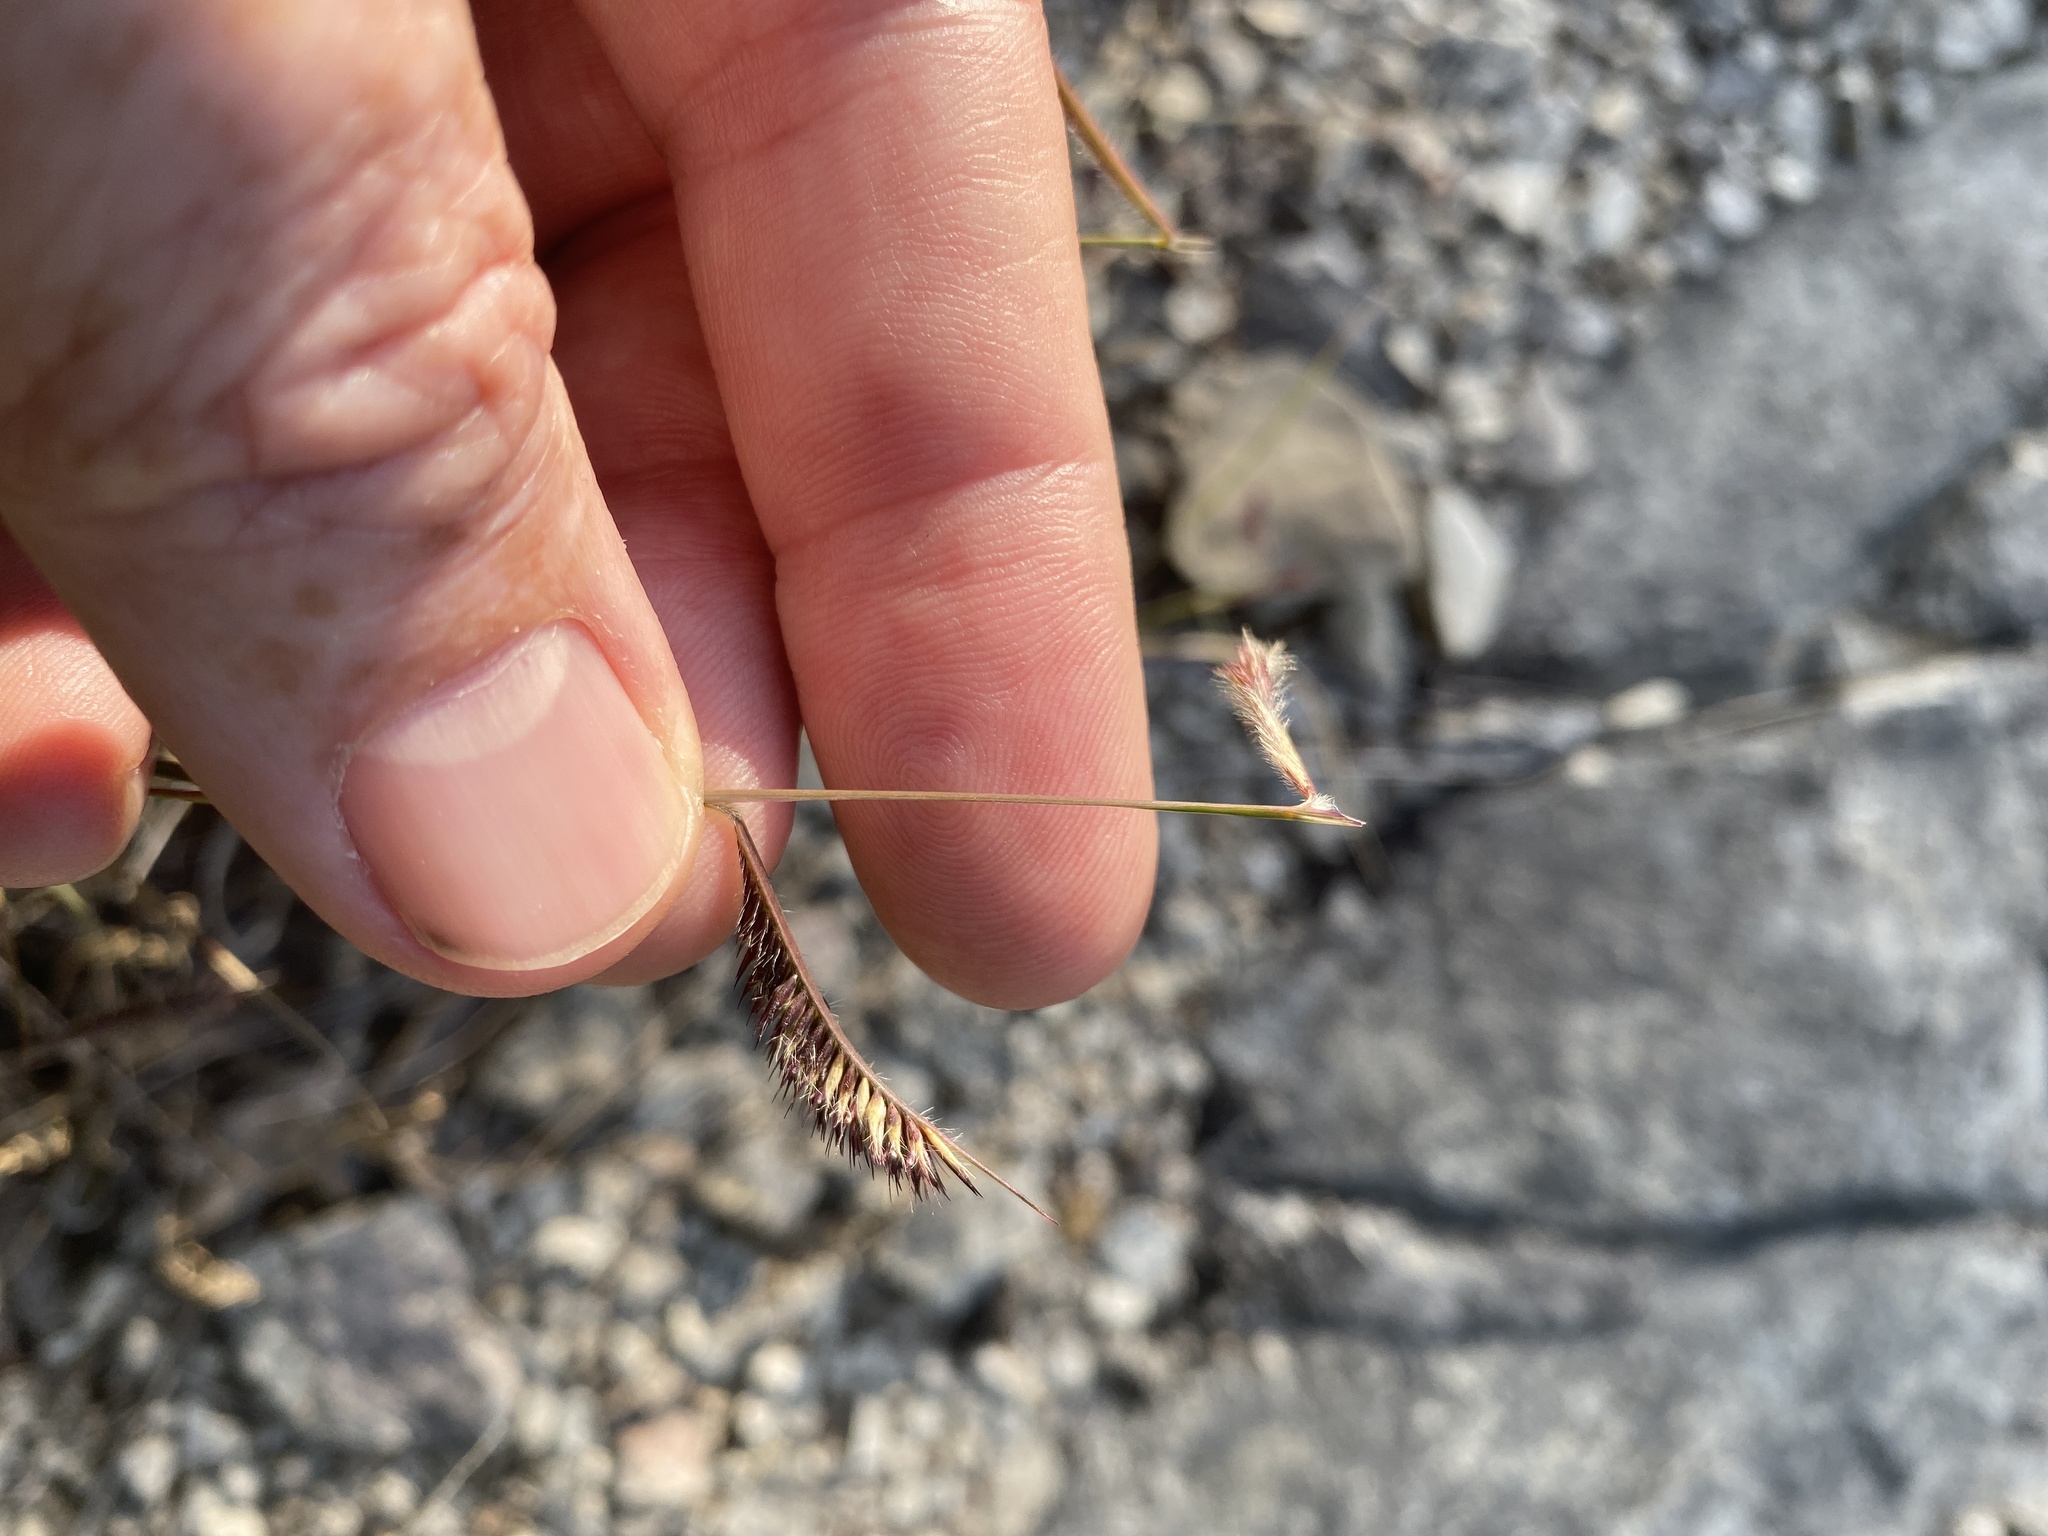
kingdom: Plantae
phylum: Tracheophyta
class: Liliopsida
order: Poales
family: Poaceae
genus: Bouteloua
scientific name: Bouteloua hirsuta
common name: Hairy grama
